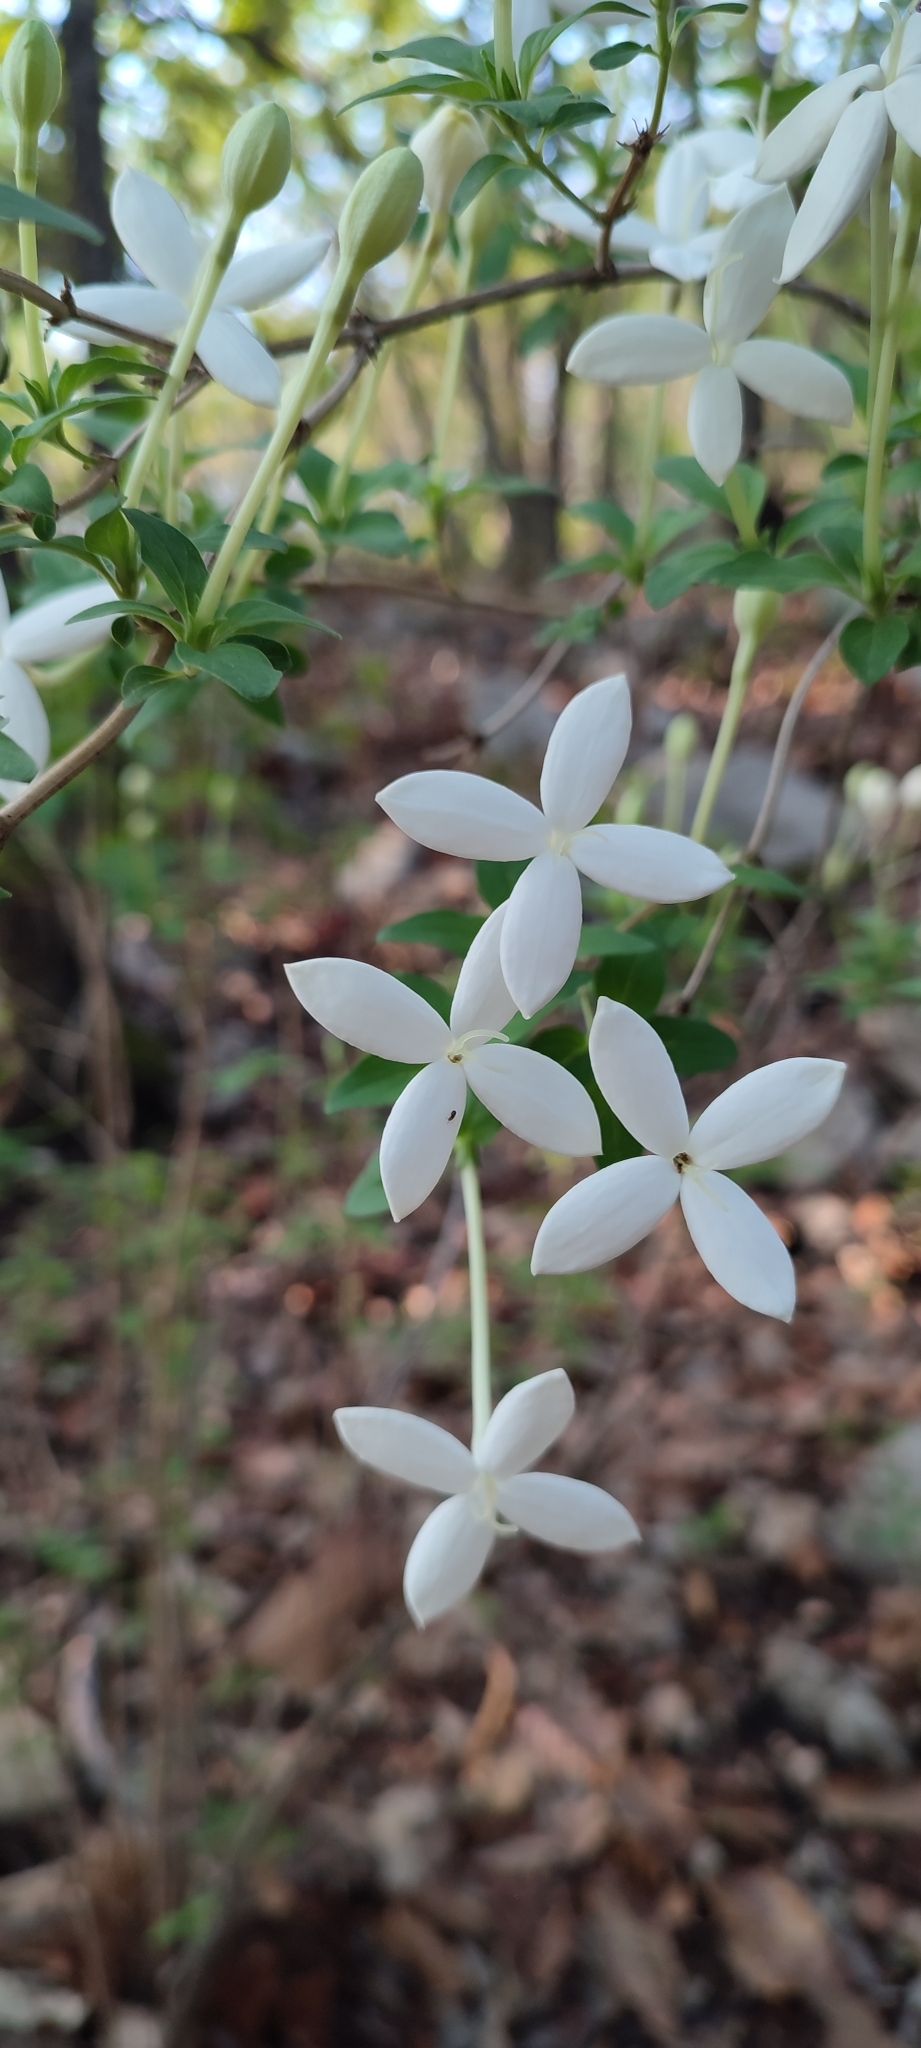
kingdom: Plantae
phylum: Tracheophyta
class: Magnoliopsida
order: Gentianales
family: Rubiaceae
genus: Bouvardia
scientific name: Bouvardia longiflora
